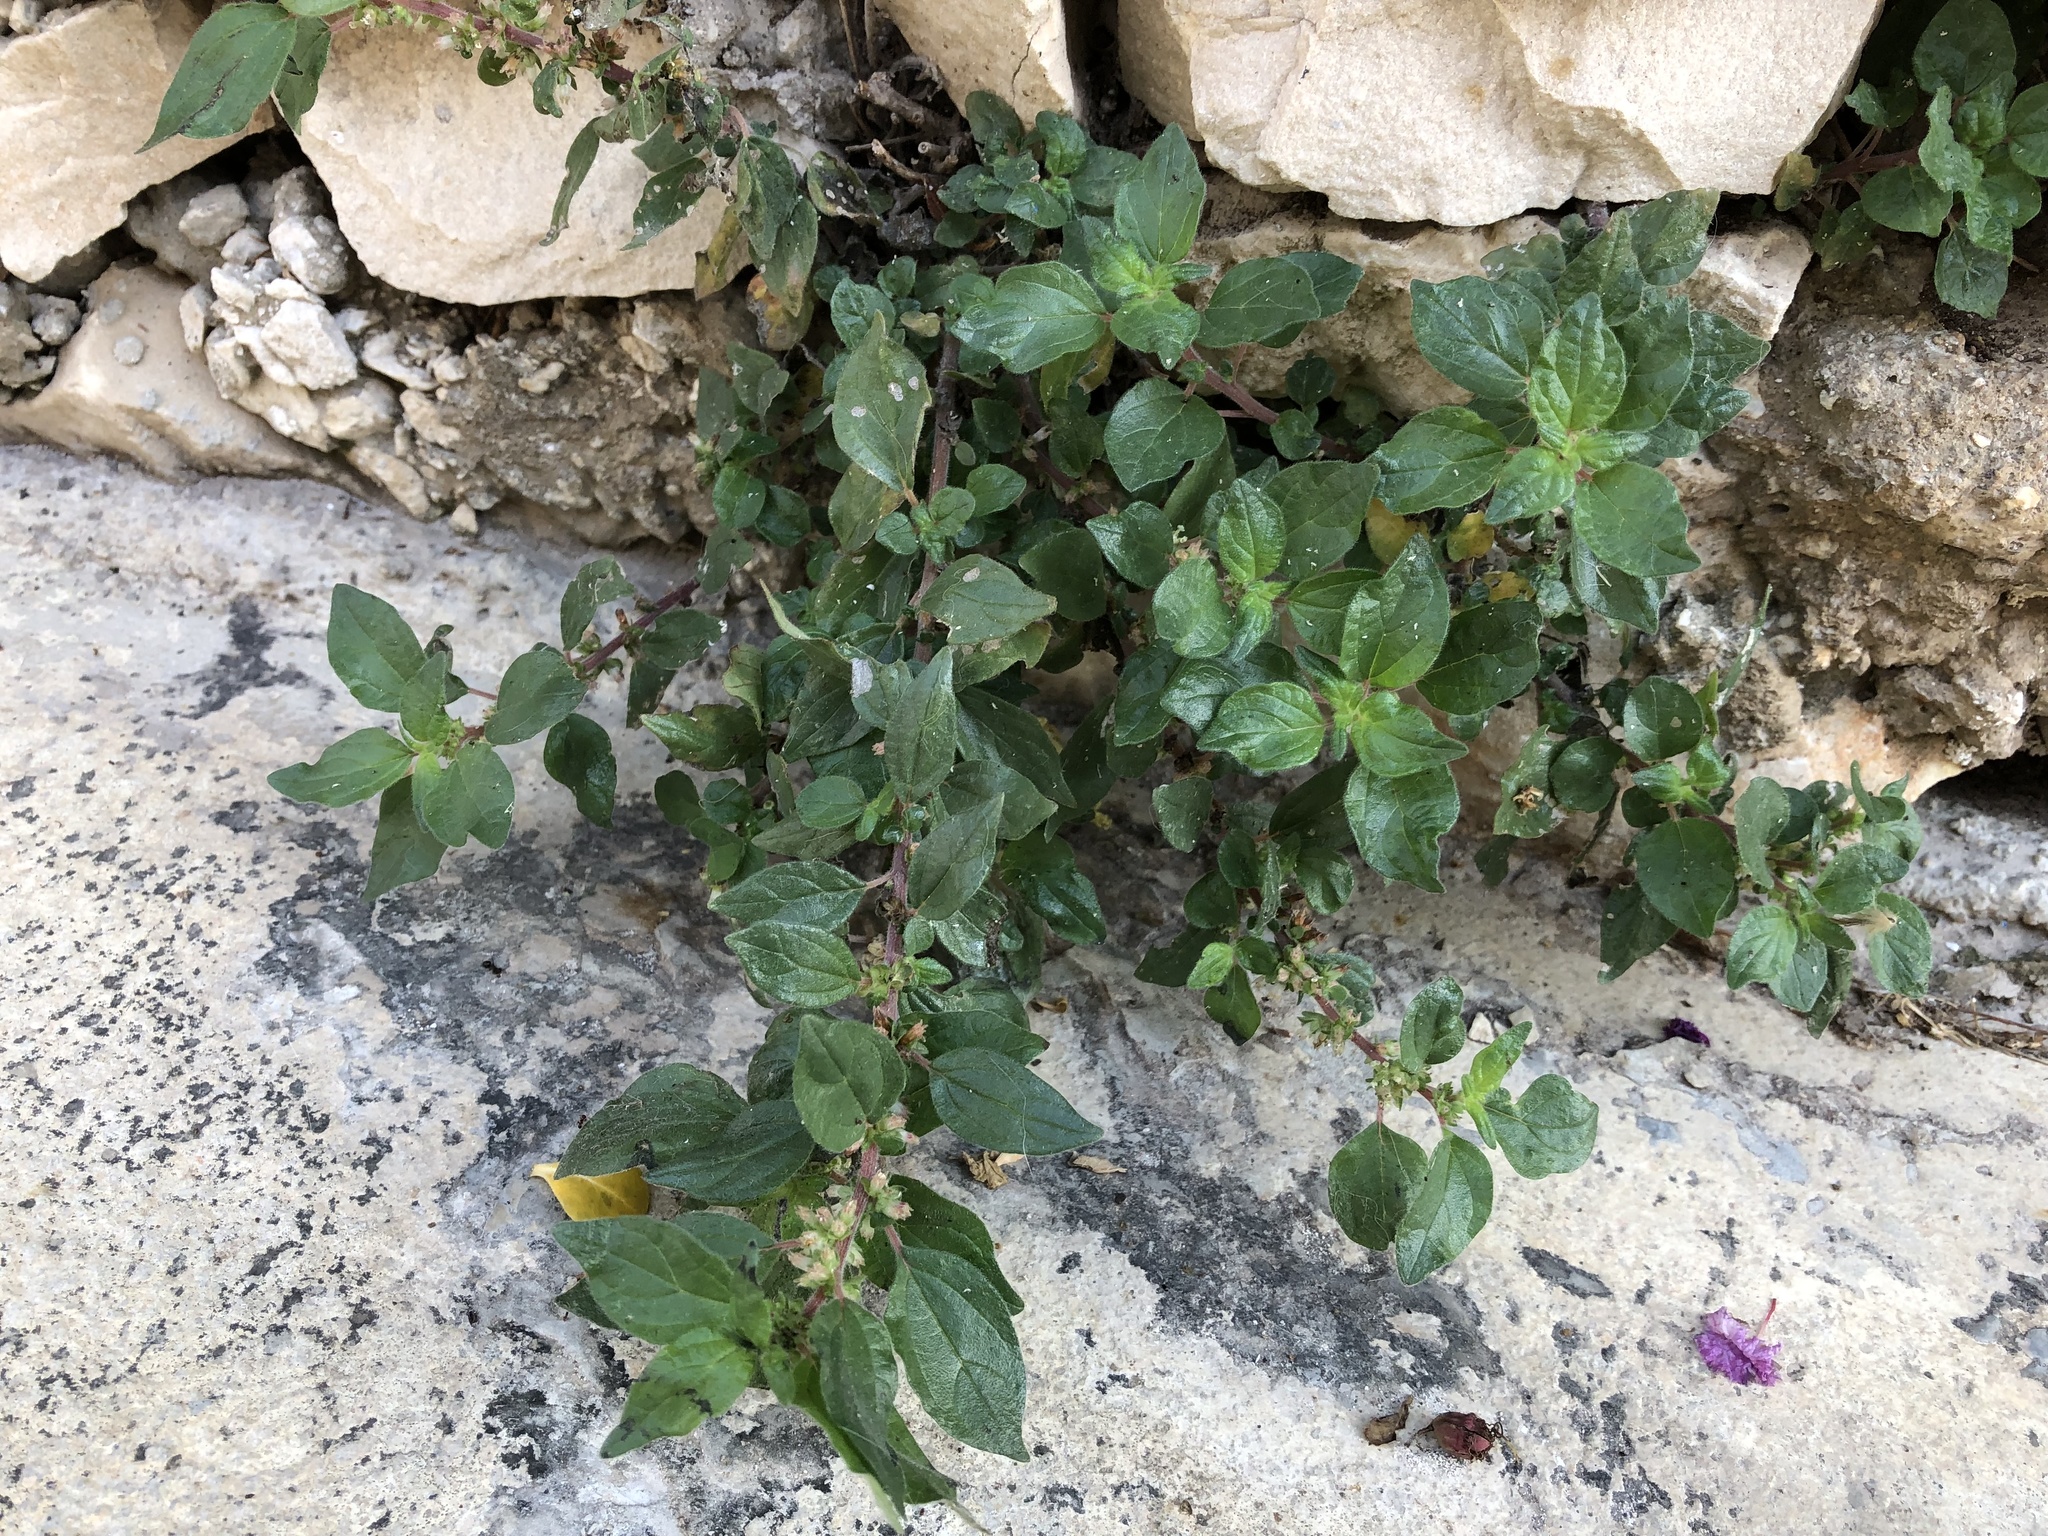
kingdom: Plantae
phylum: Tracheophyta
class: Magnoliopsida
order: Rosales
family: Urticaceae
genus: Parietaria
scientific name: Parietaria judaica
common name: Pellitory-of-the-wall
